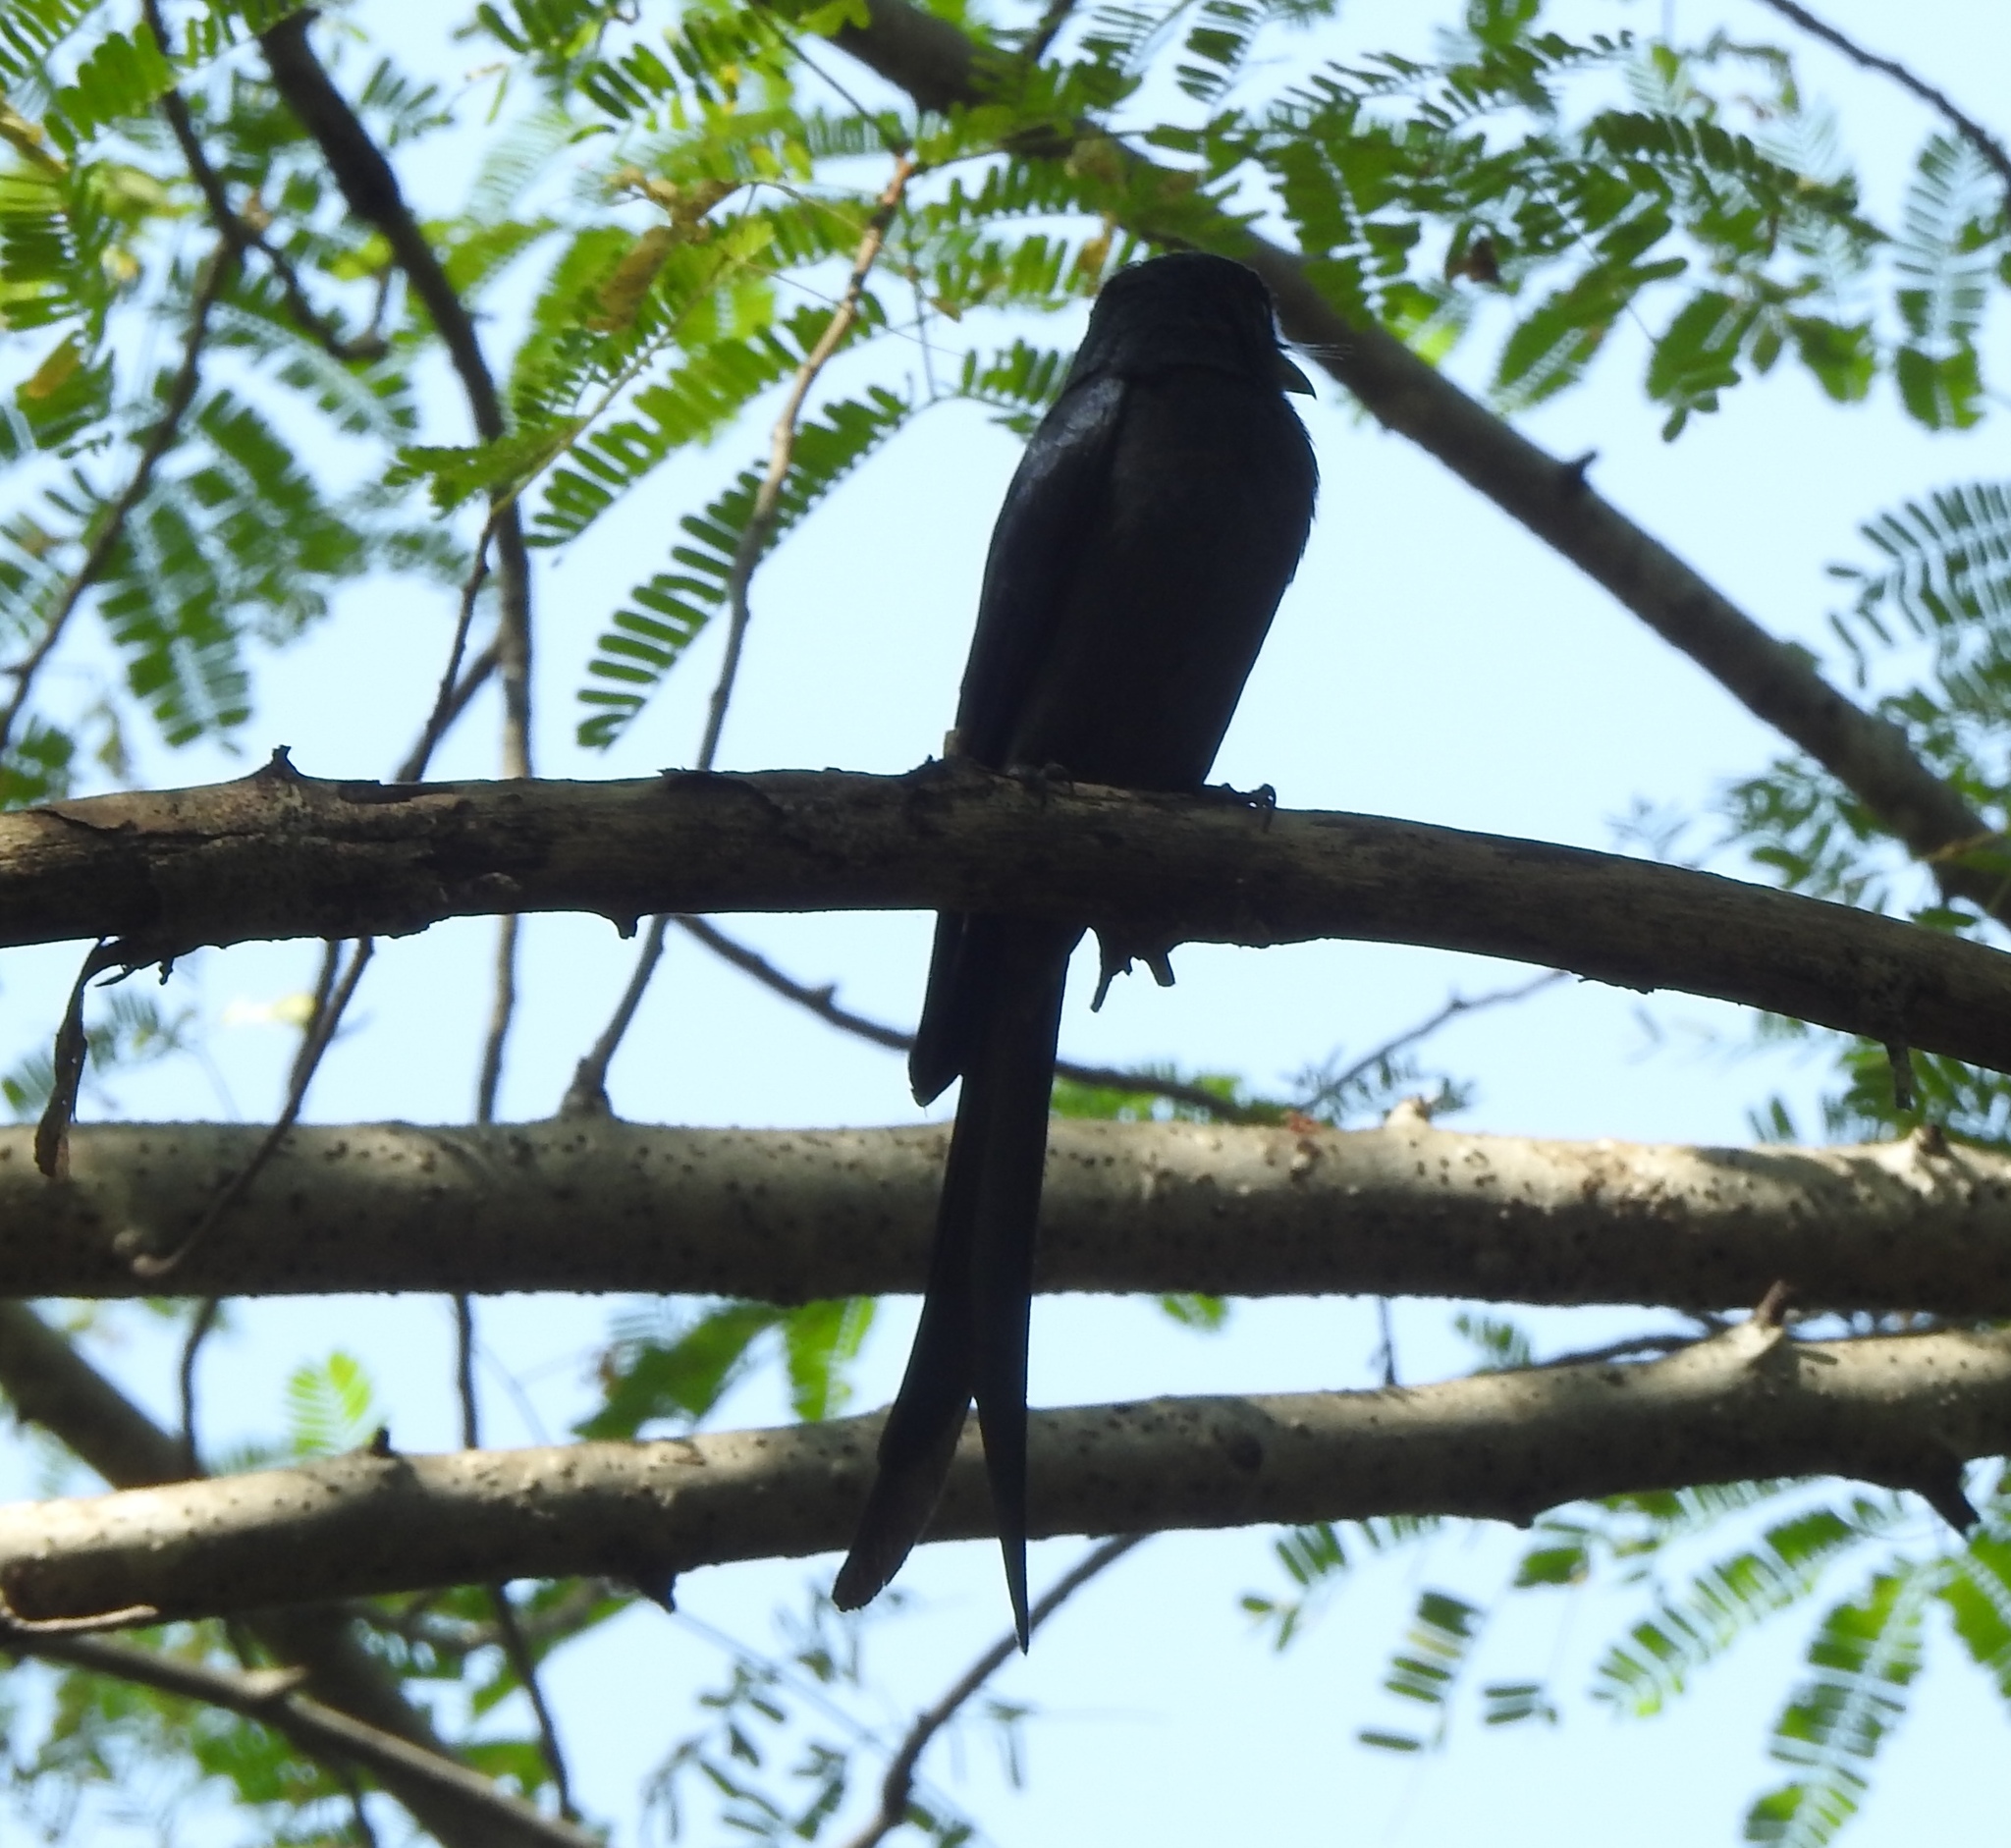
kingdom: Animalia
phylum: Chordata
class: Aves
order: Passeriformes
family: Dicruridae
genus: Dicrurus
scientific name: Dicrurus leucophaeus
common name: Ashy drongo
